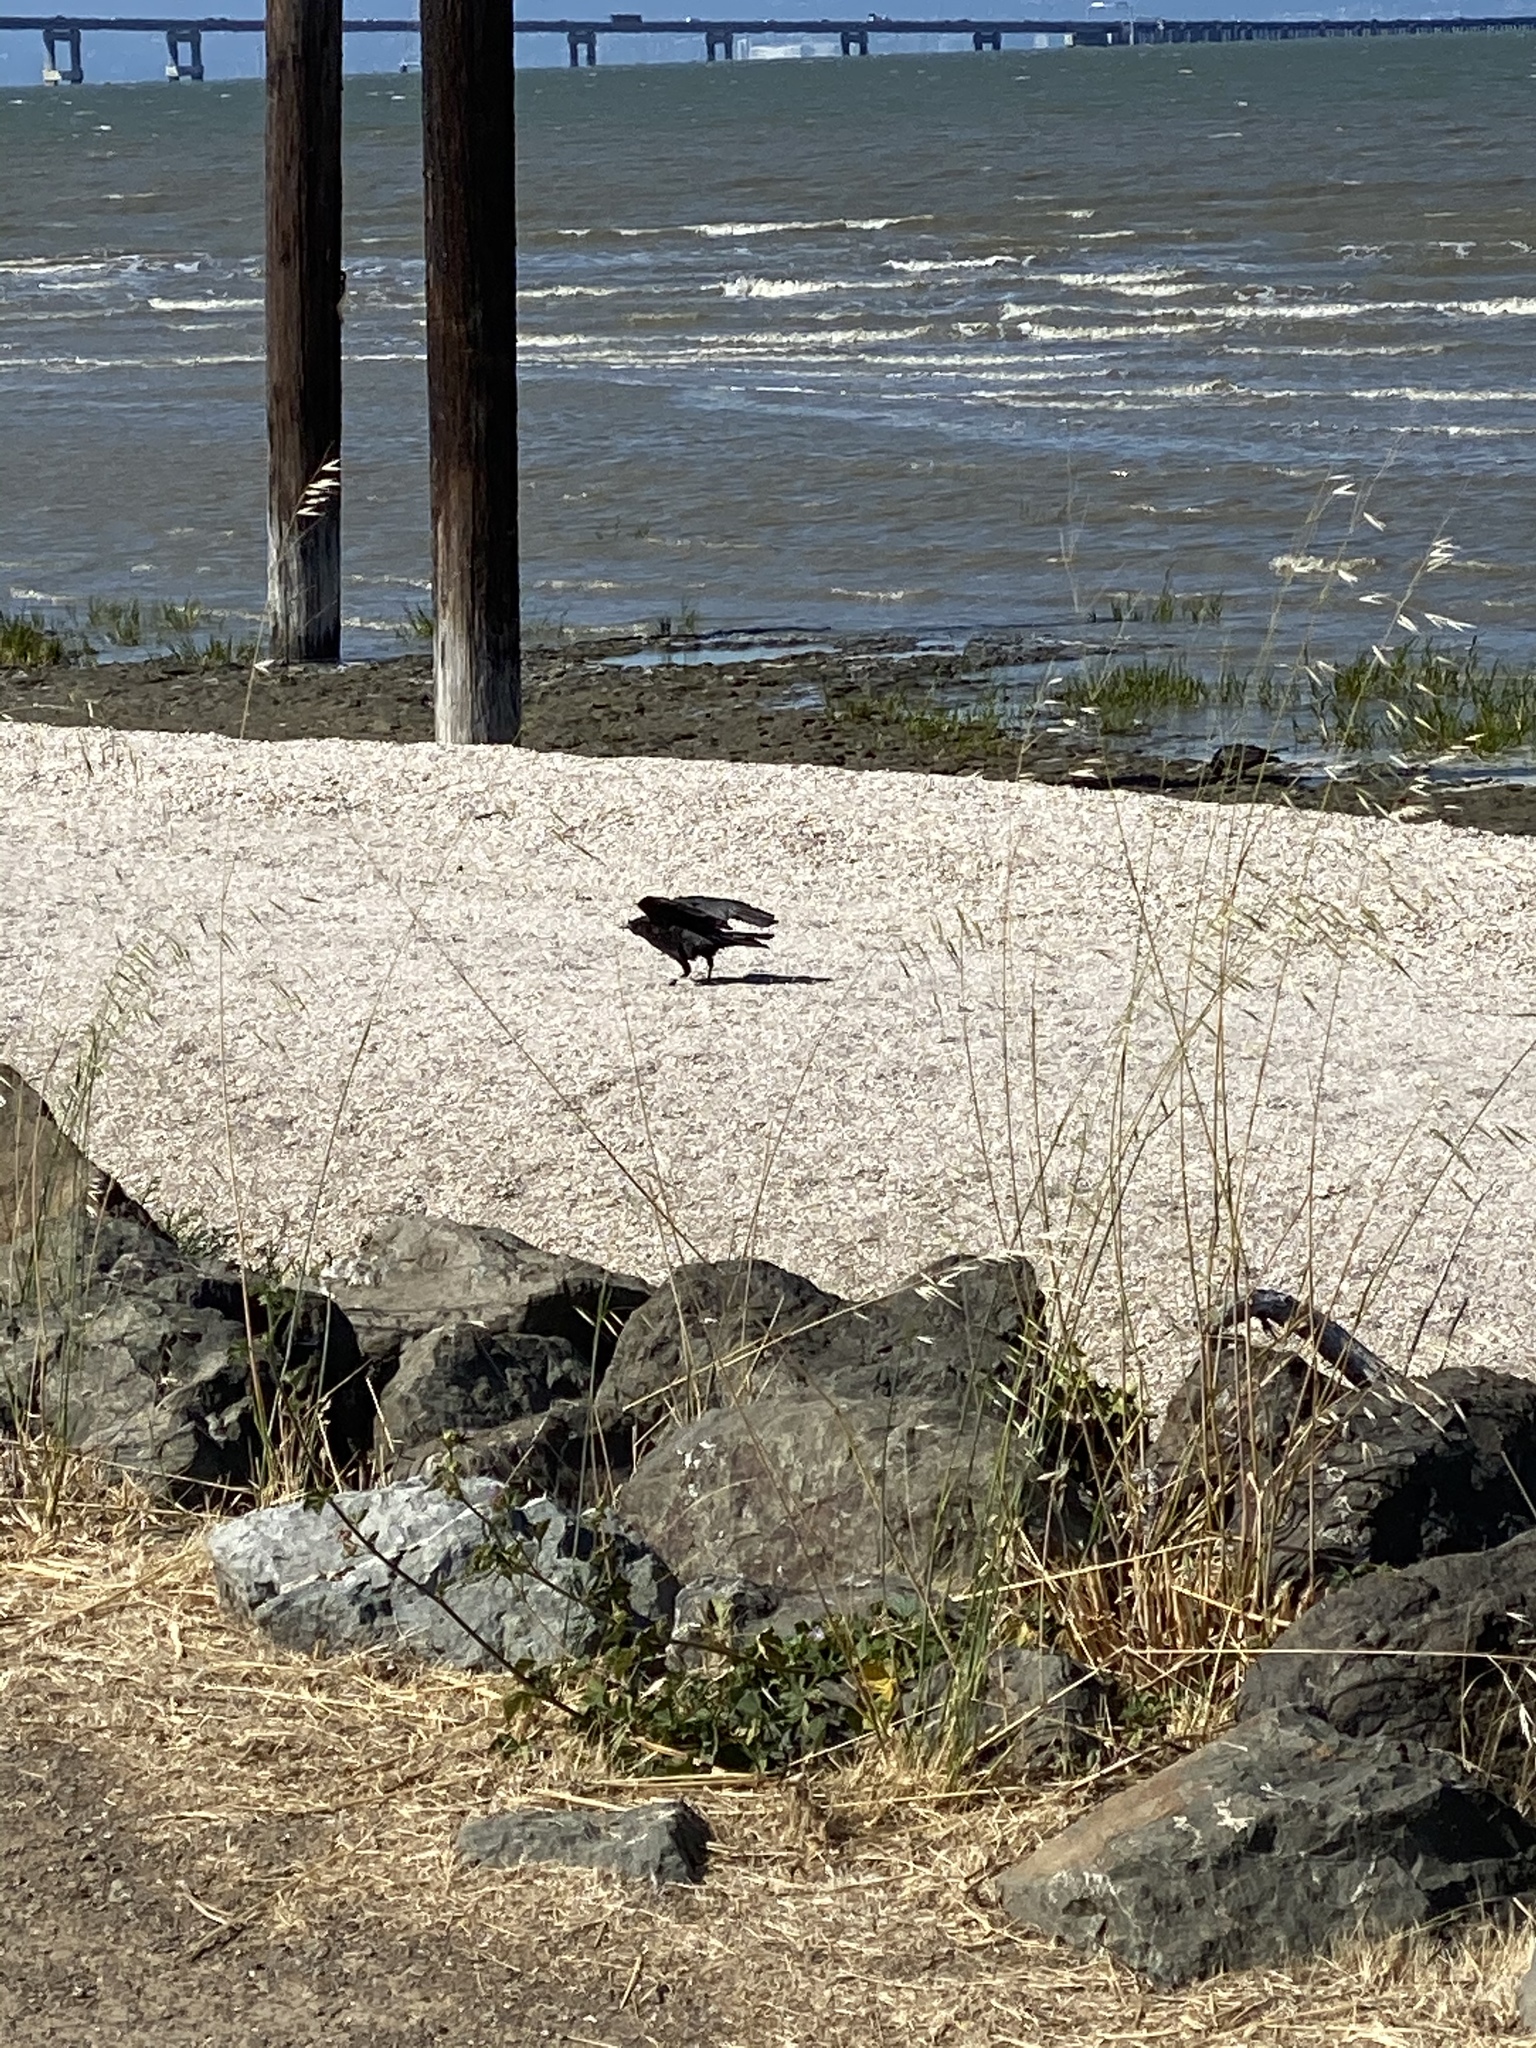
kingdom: Animalia
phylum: Chordata
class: Aves
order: Passeriformes
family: Corvidae
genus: Corvus
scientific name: Corvus brachyrhynchos
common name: American crow
